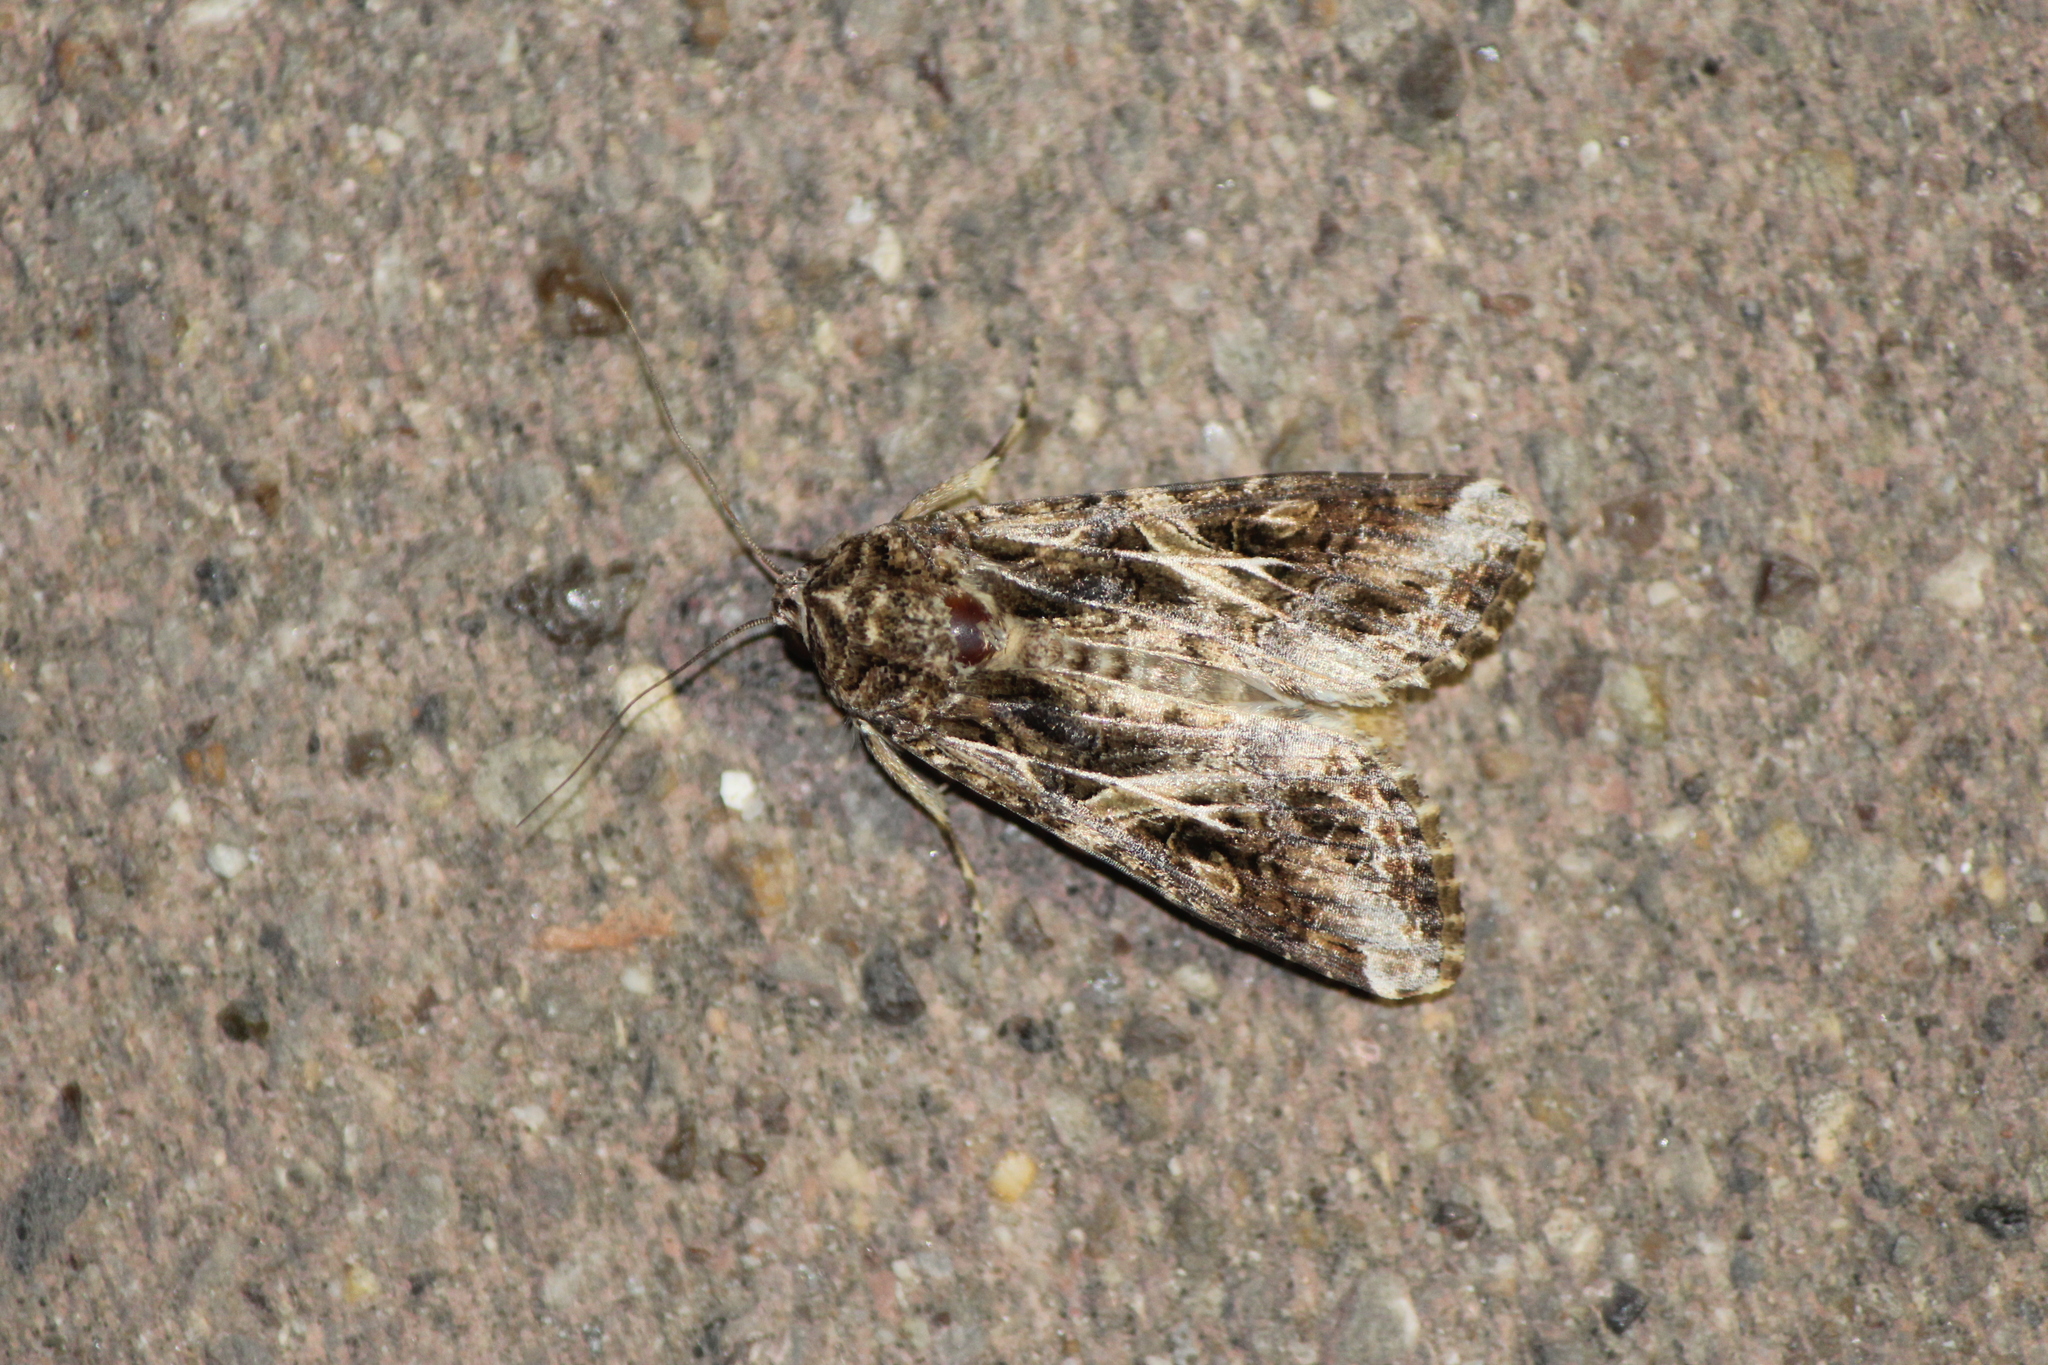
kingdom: Animalia
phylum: Arthropoda
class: Insecta
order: Lepidoptera
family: Noctuidae
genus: Spodoptera
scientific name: Spodoptera ornithogalli
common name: Yellow-striped armyworm
